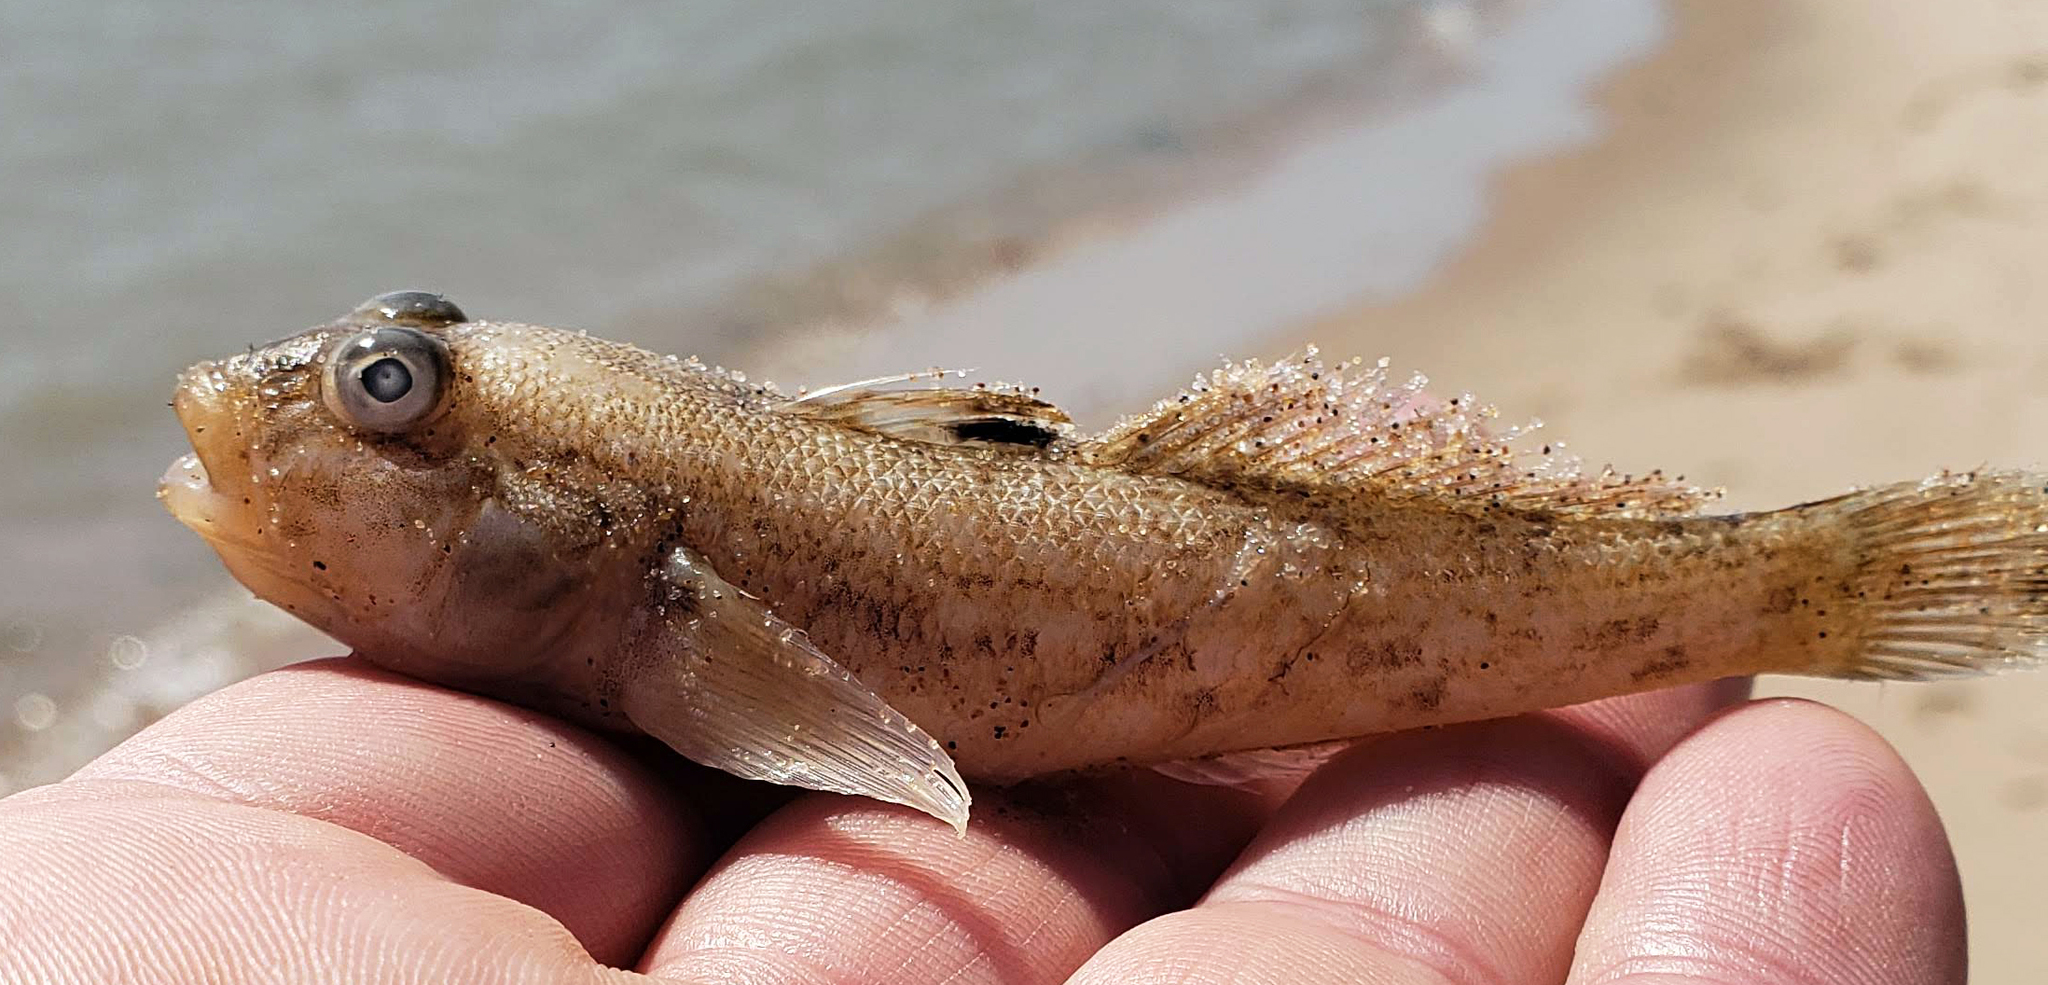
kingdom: Animalia
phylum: Chordata
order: Perciformes
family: Gobiidae
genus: Neogobius
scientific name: Neogobius melanostomus
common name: Round goby
